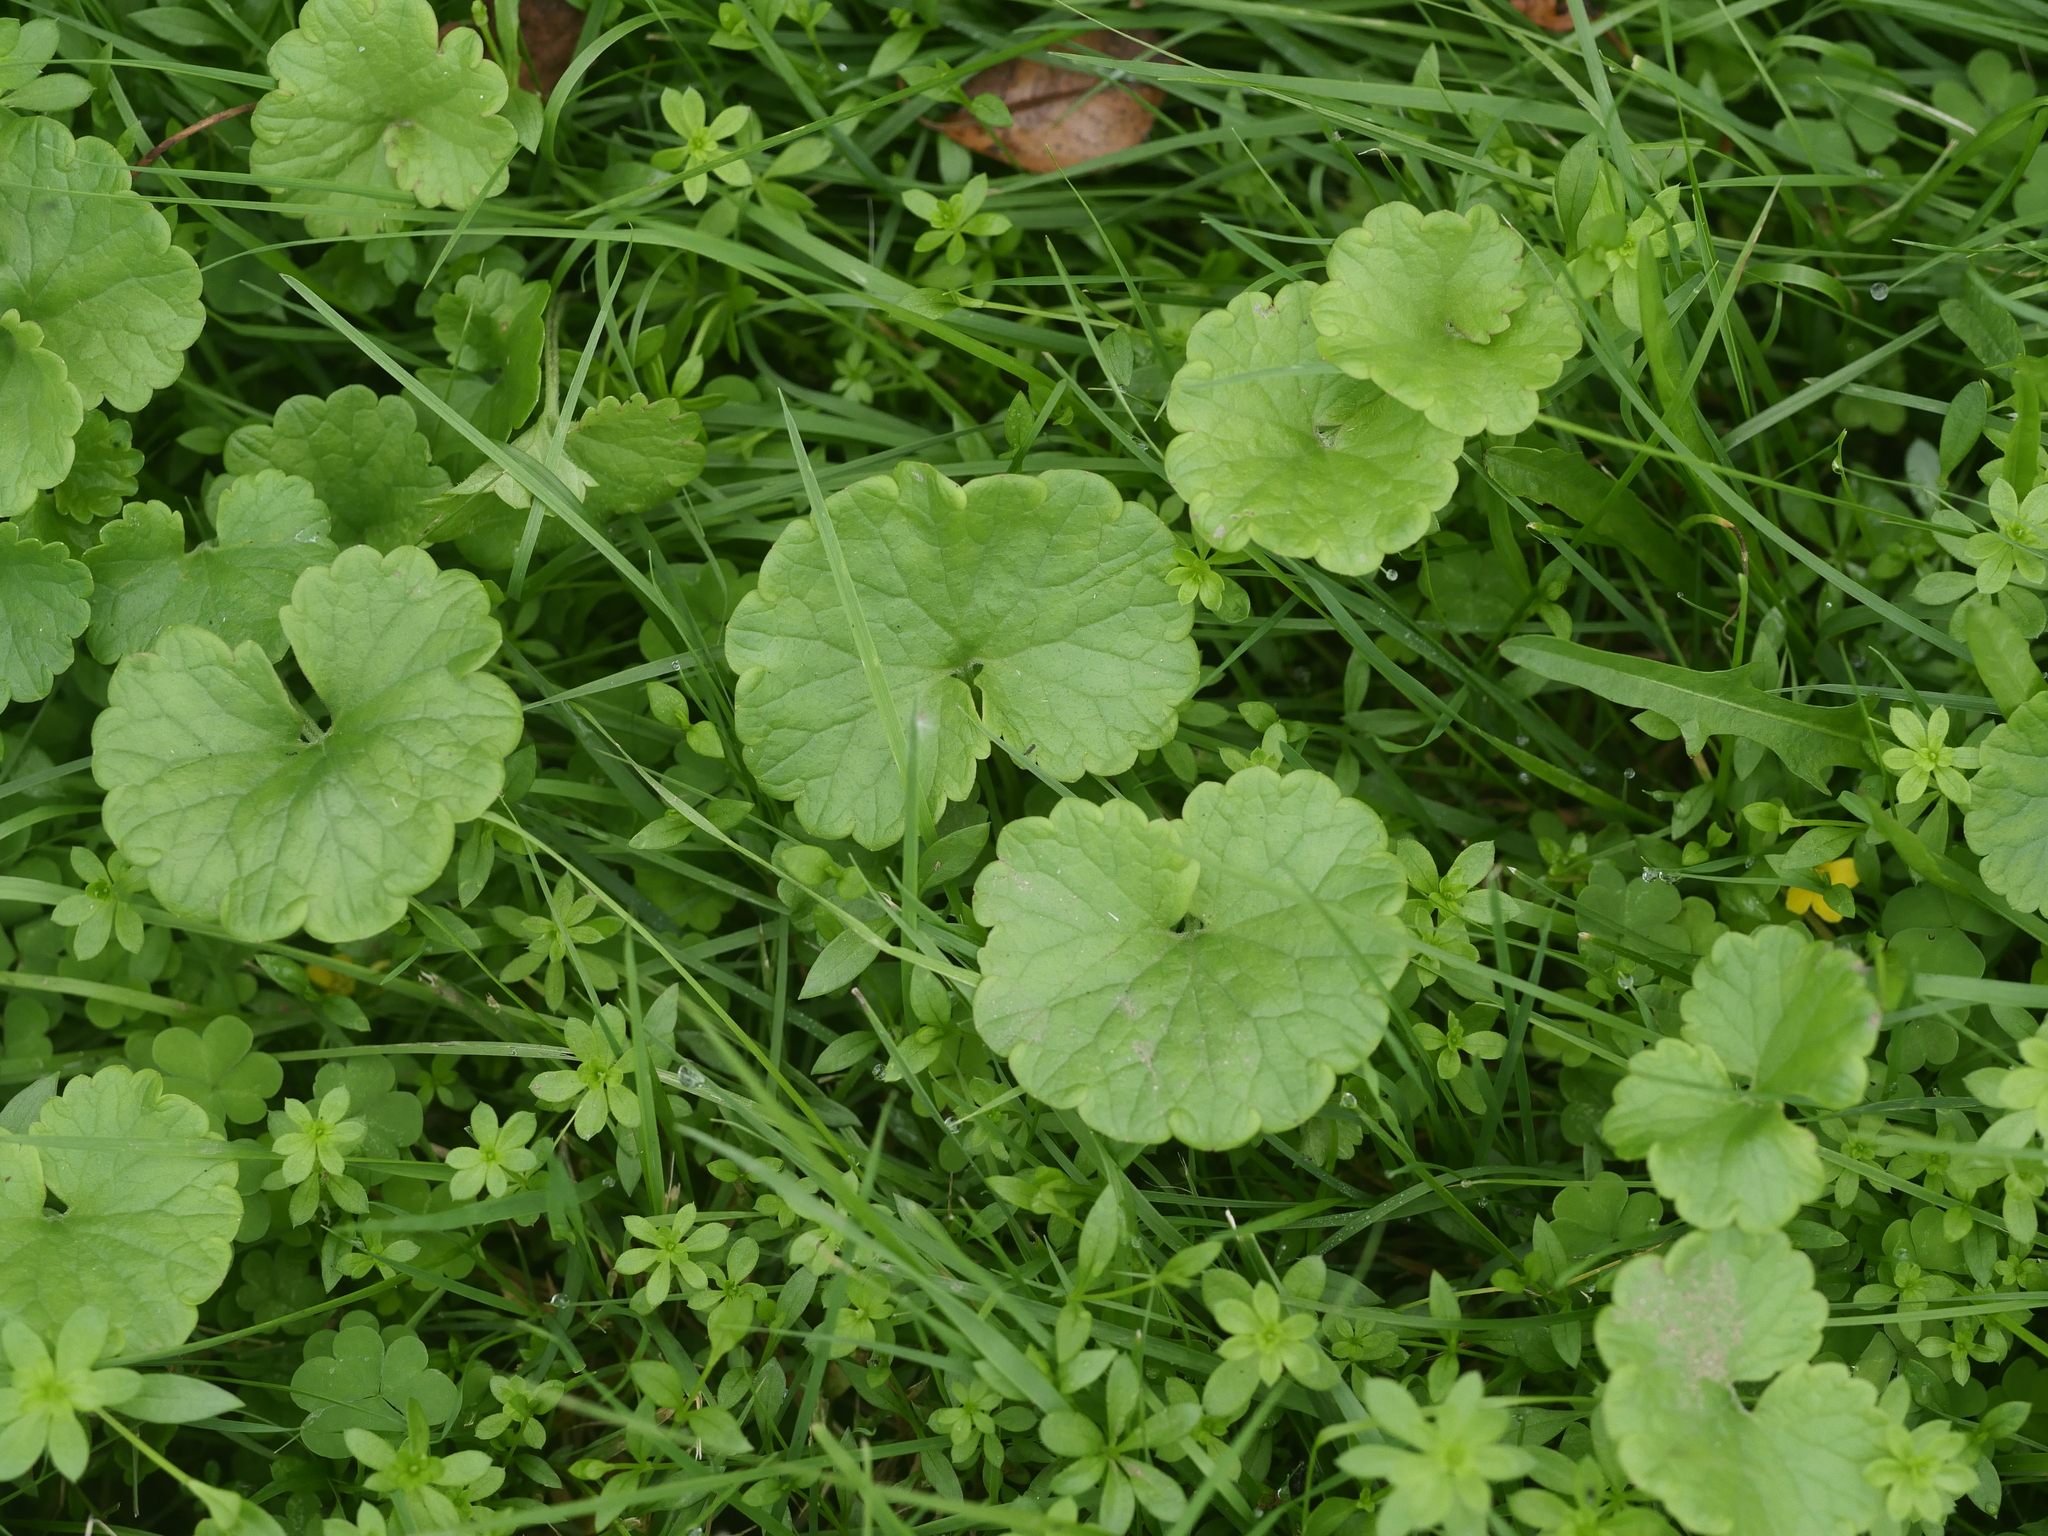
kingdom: Plantae
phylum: Tracheophyta
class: Magnoliopsida
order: Lamiales
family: Lamiaceae
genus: Glechoma
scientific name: Glechoma hederacea
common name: Ground ivy
